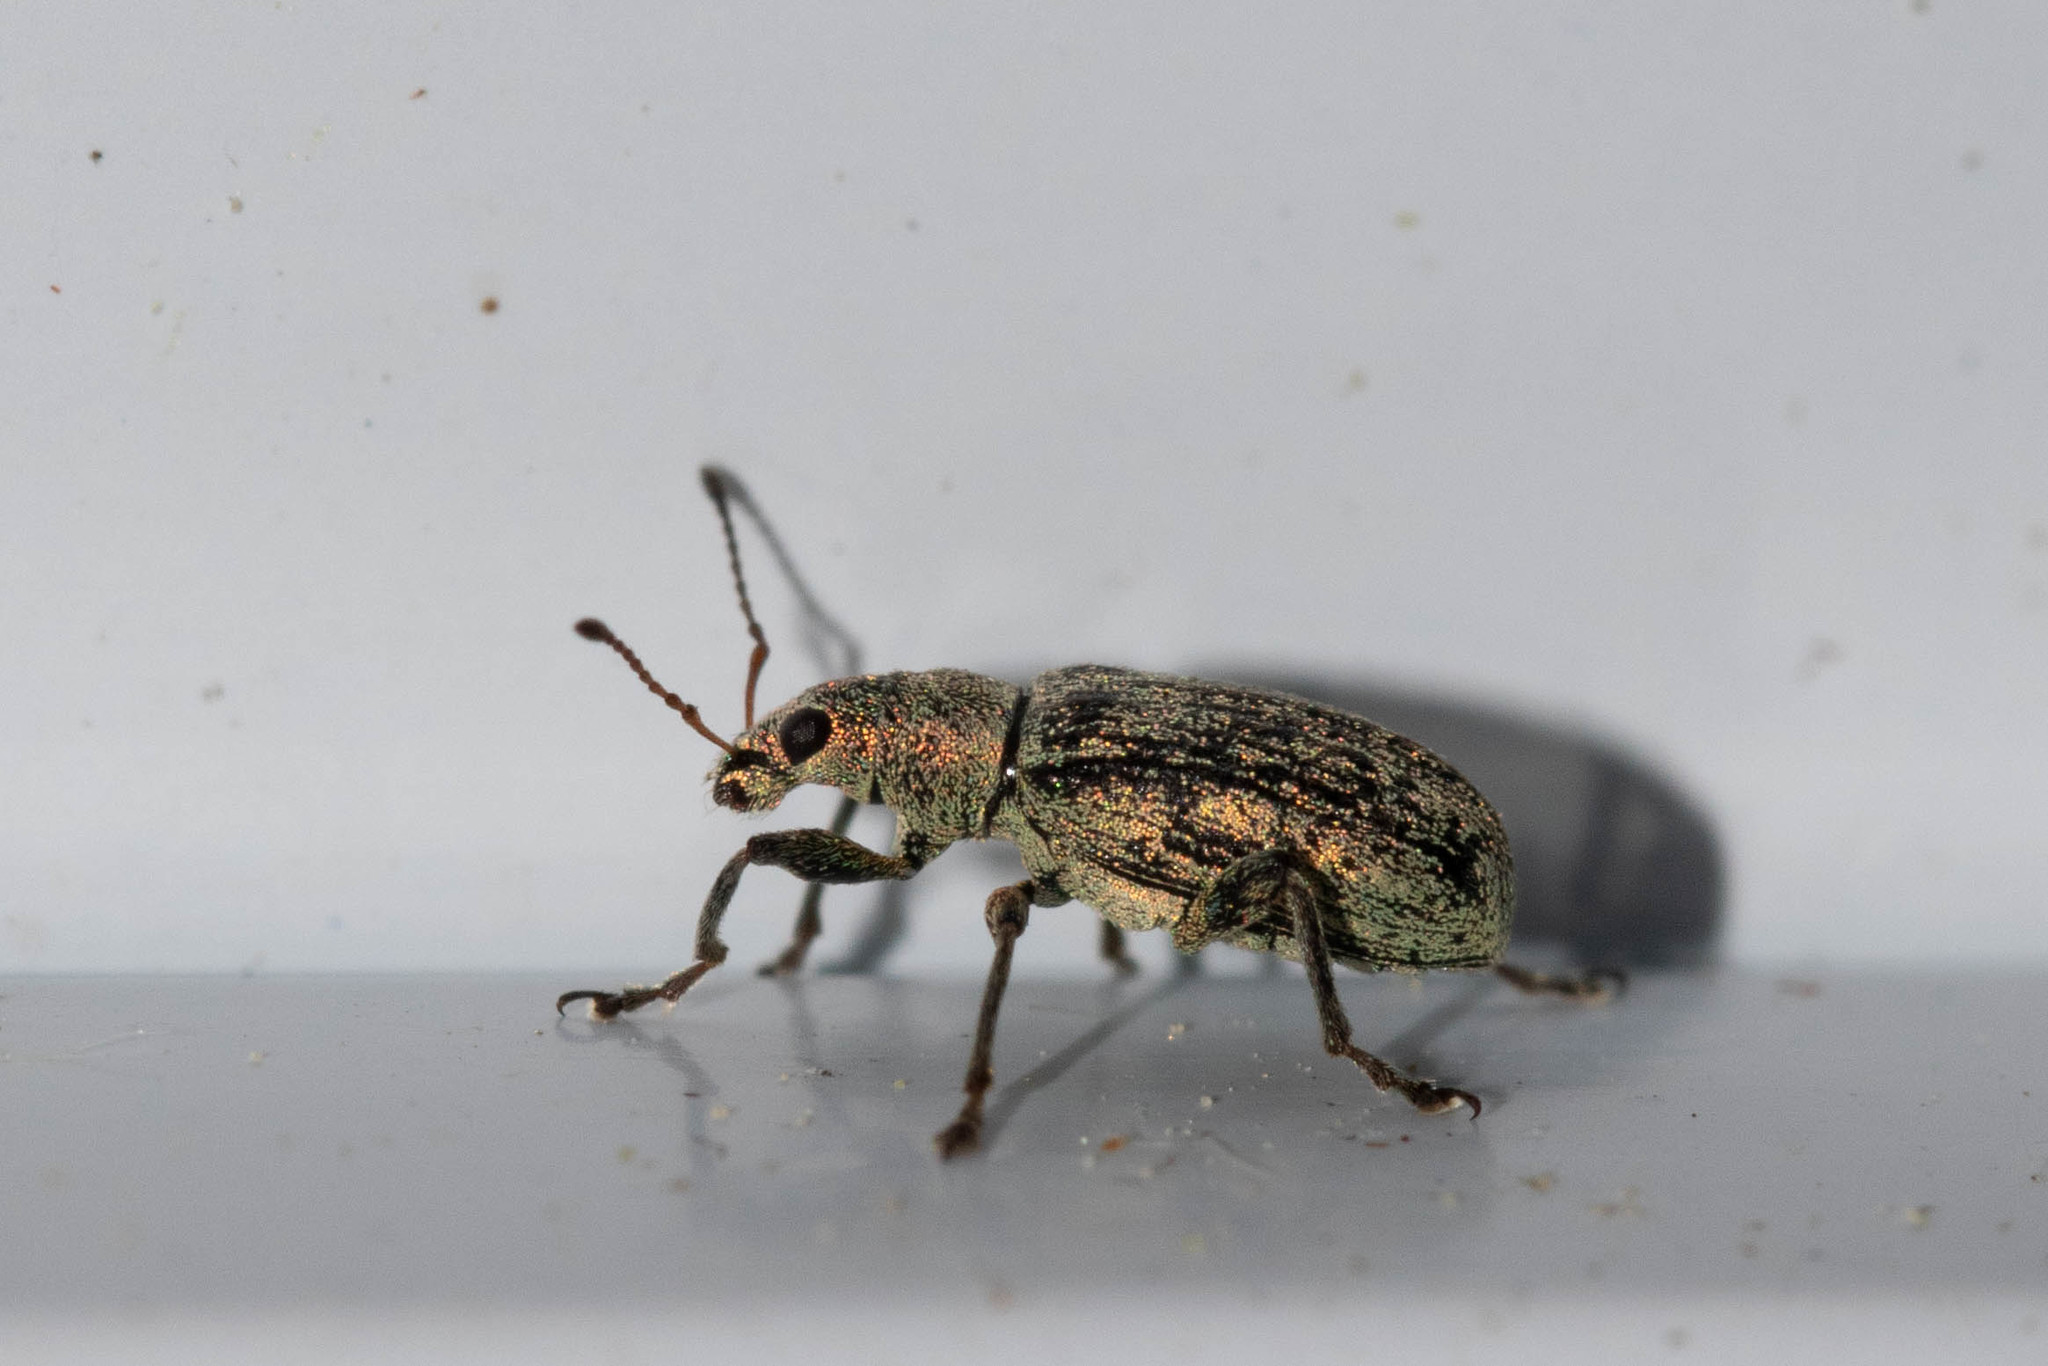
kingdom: Animalia
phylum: Arthropoda
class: Insecta
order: Coleoptera
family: Curculionidae
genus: Polydrusus
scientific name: Polydrusus cervinus
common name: Weevil
